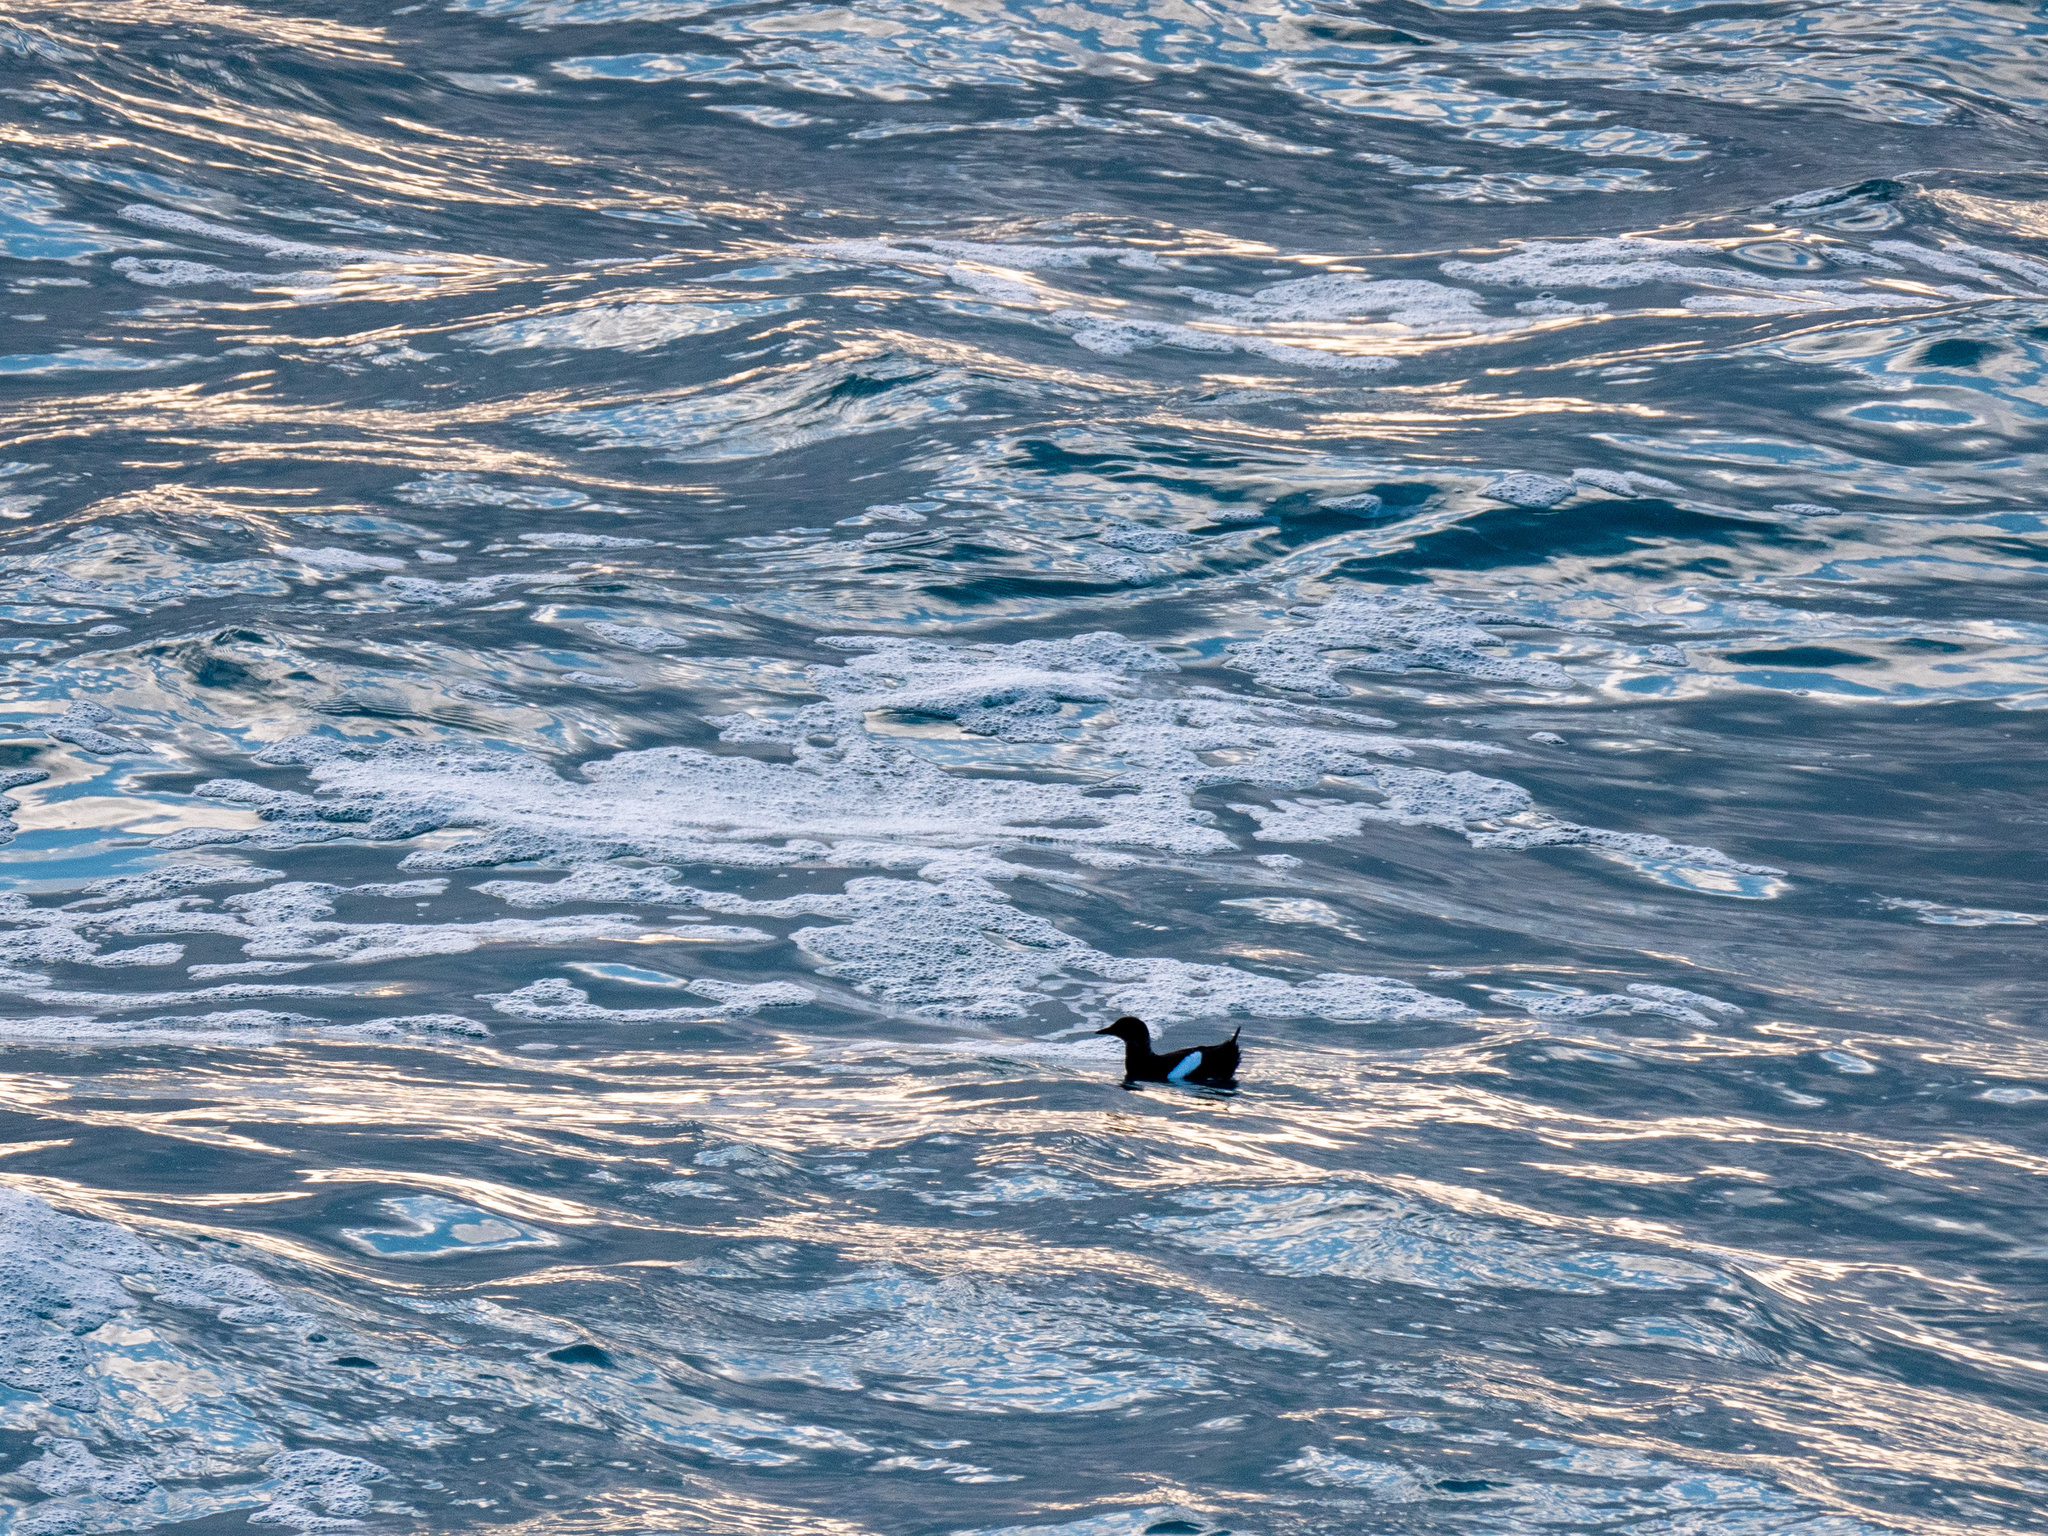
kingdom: Animalia
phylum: Chordata
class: Aves
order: Charadriiformes
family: Alcidae
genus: Cepphus
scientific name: Cepphus grylle
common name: Black guillemot
